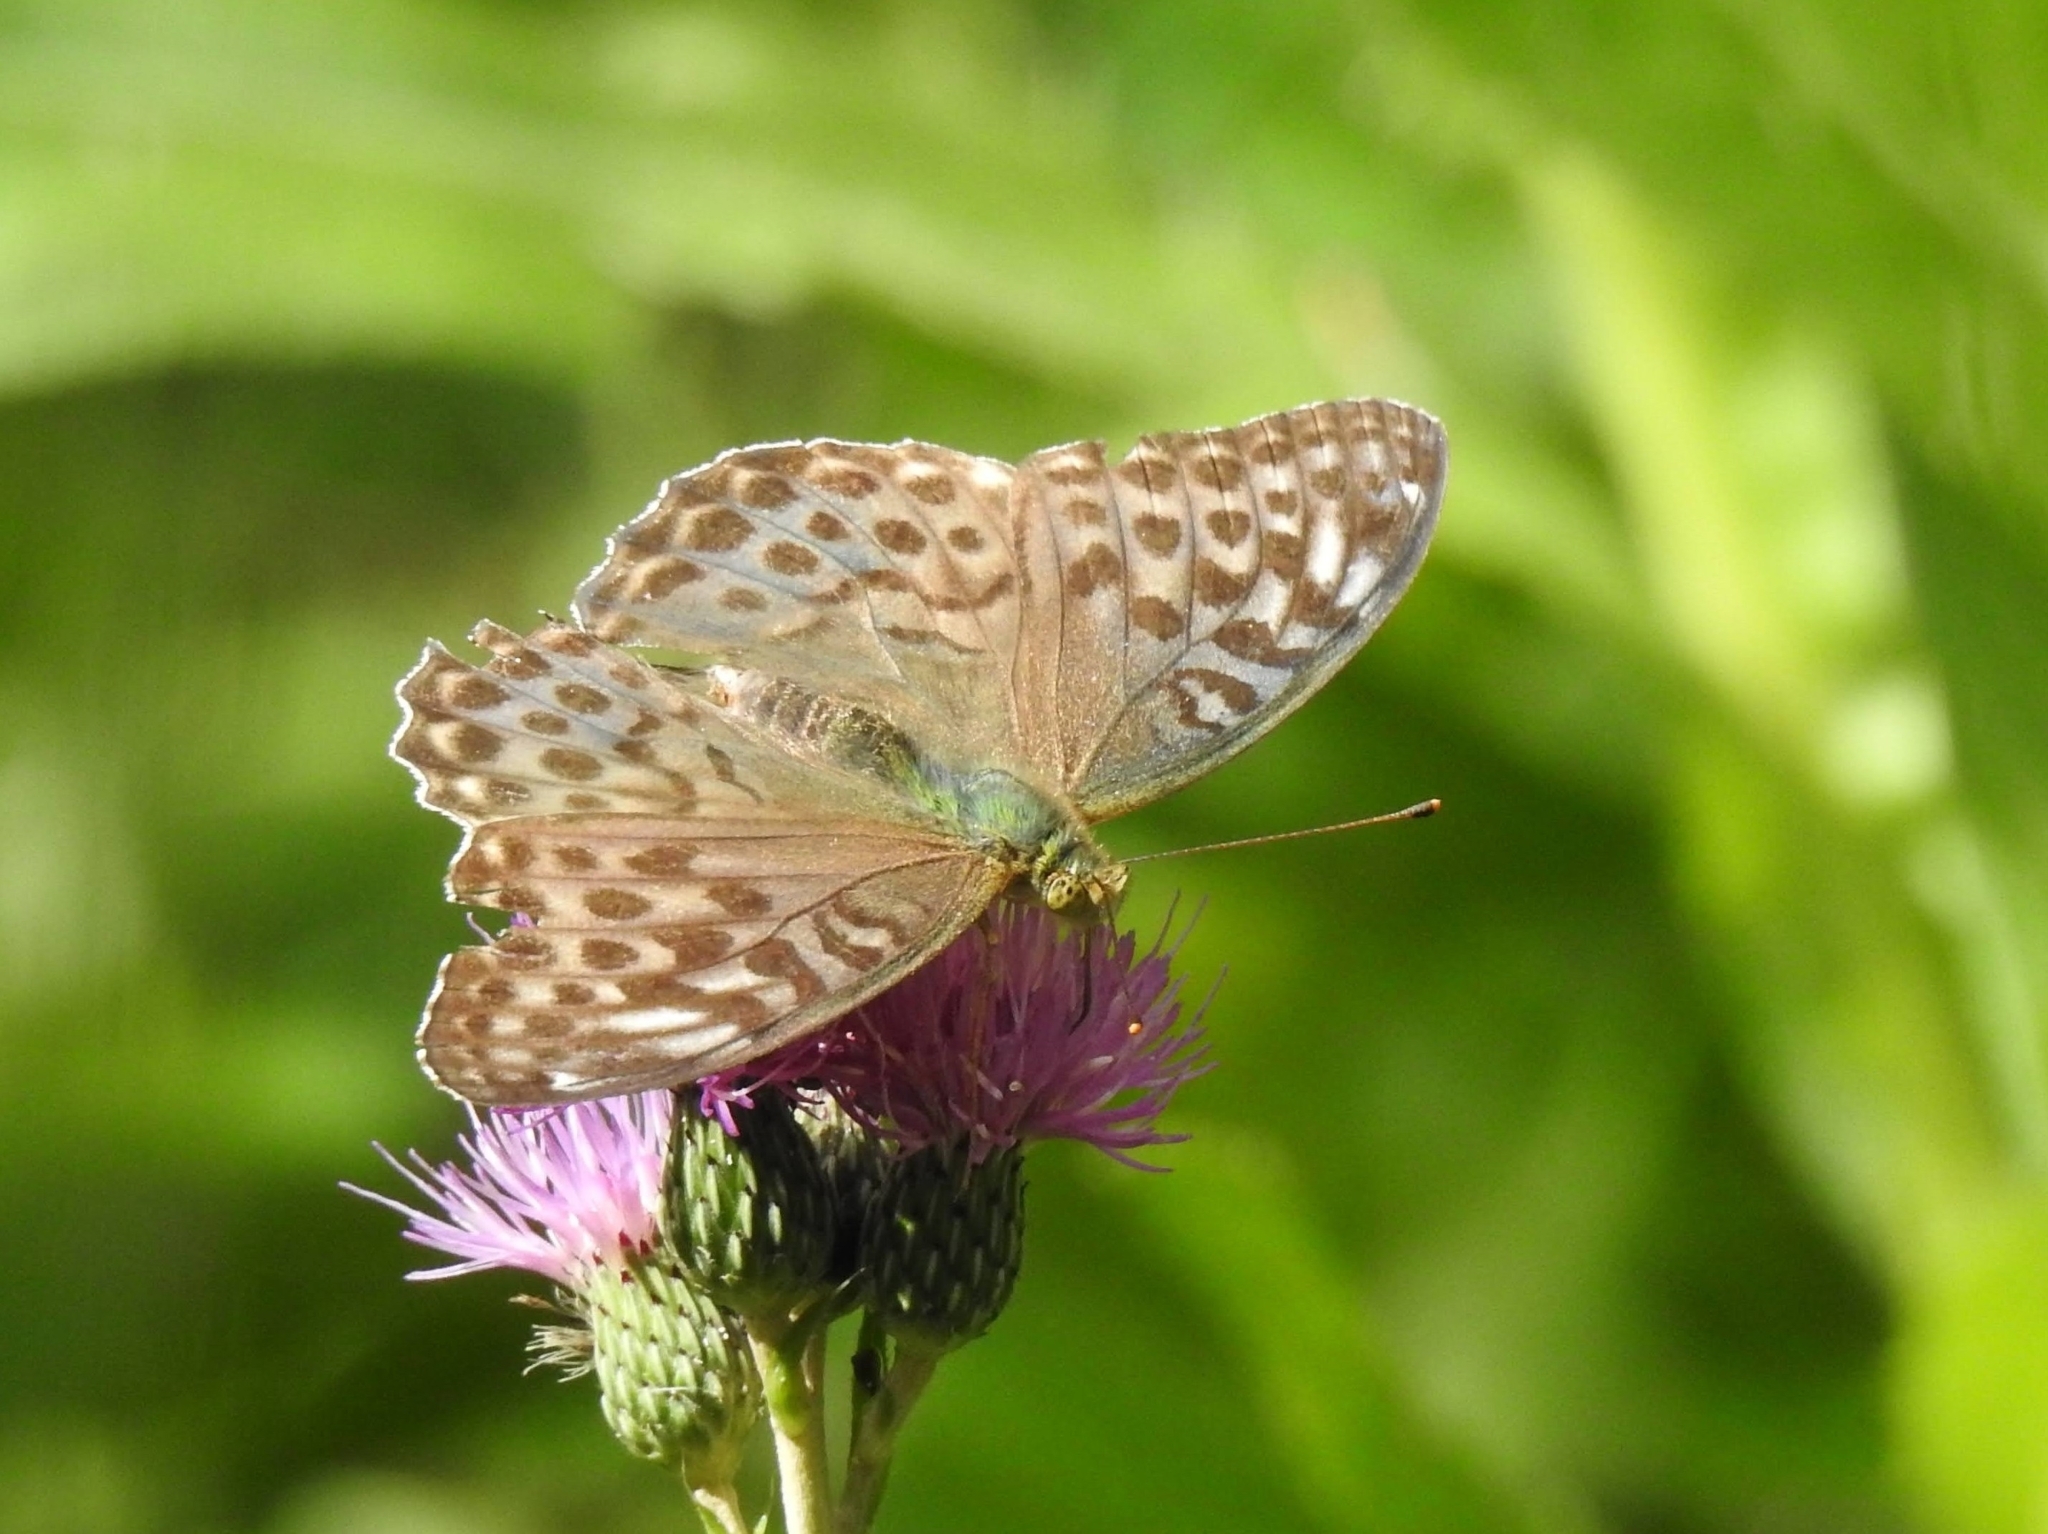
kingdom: Animalia
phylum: Arthropoda
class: Insecta
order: Lepidoptera
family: Nymphalidae
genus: Argynnis
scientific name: Argynnis paphia
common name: Silver-washed fritillary
